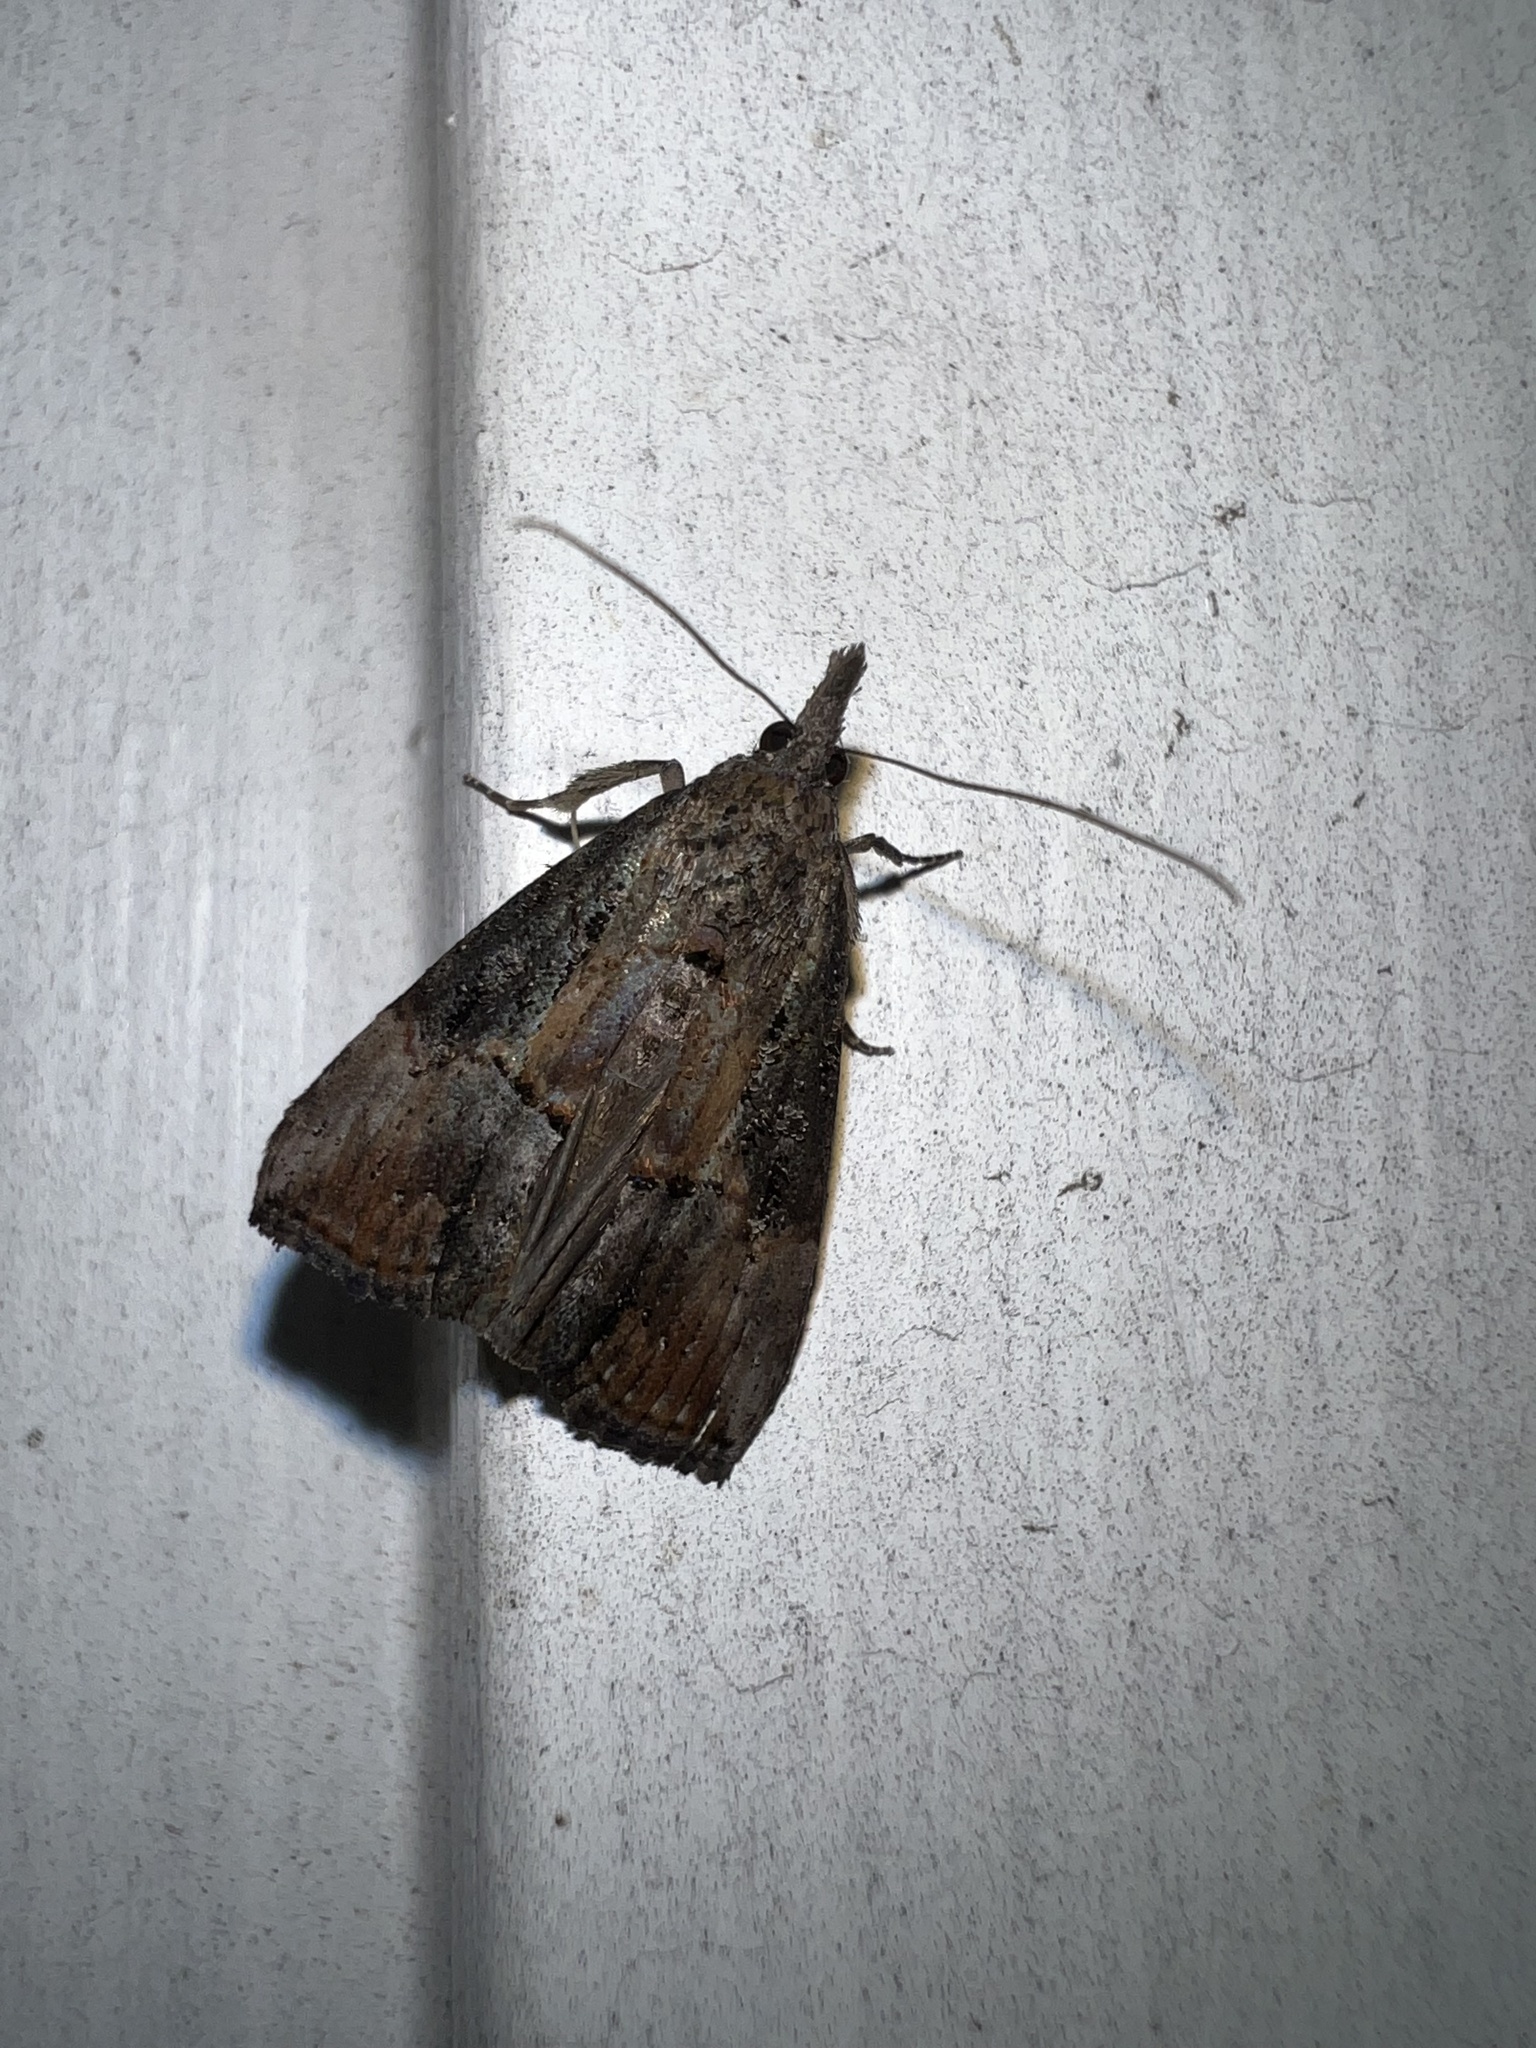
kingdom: Animalia
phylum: Arthropoda
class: Insecta
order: Lepidoptera
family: Erebidae
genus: Hypena
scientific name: Hypena scabra
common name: Green cloverworm
